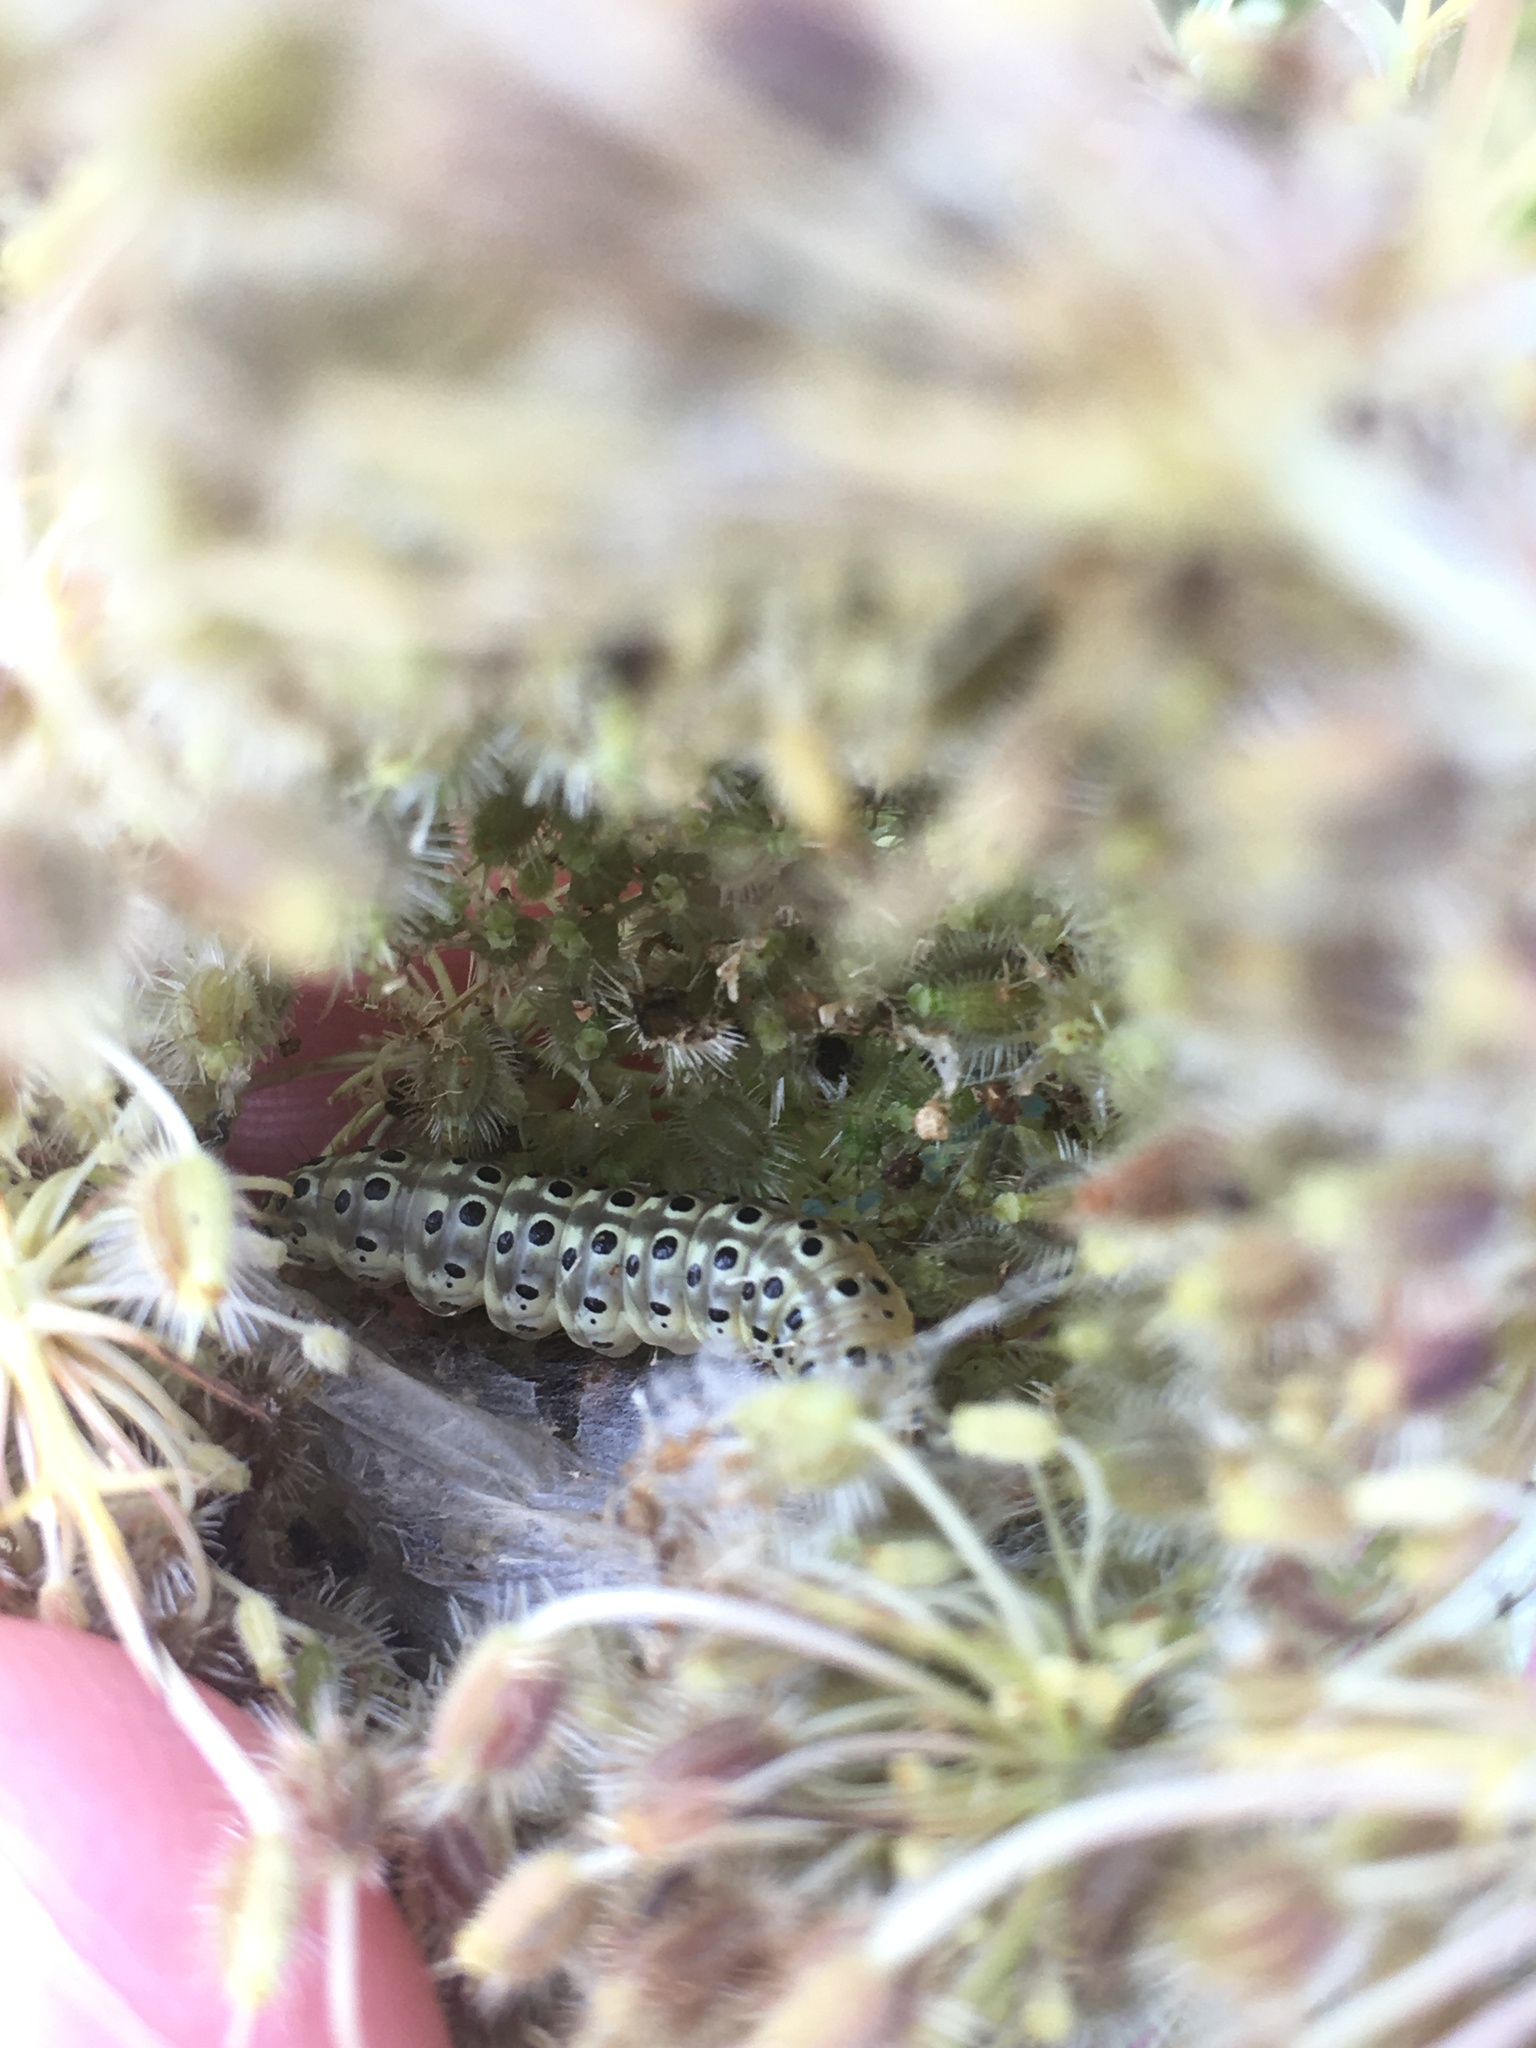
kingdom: Animalia
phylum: Arthropoda
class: Insecta
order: Lepidoptera
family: Crambidae
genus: Sitochroa
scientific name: Sitochroa palealis
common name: Greenish-yellow sitochroa moth
